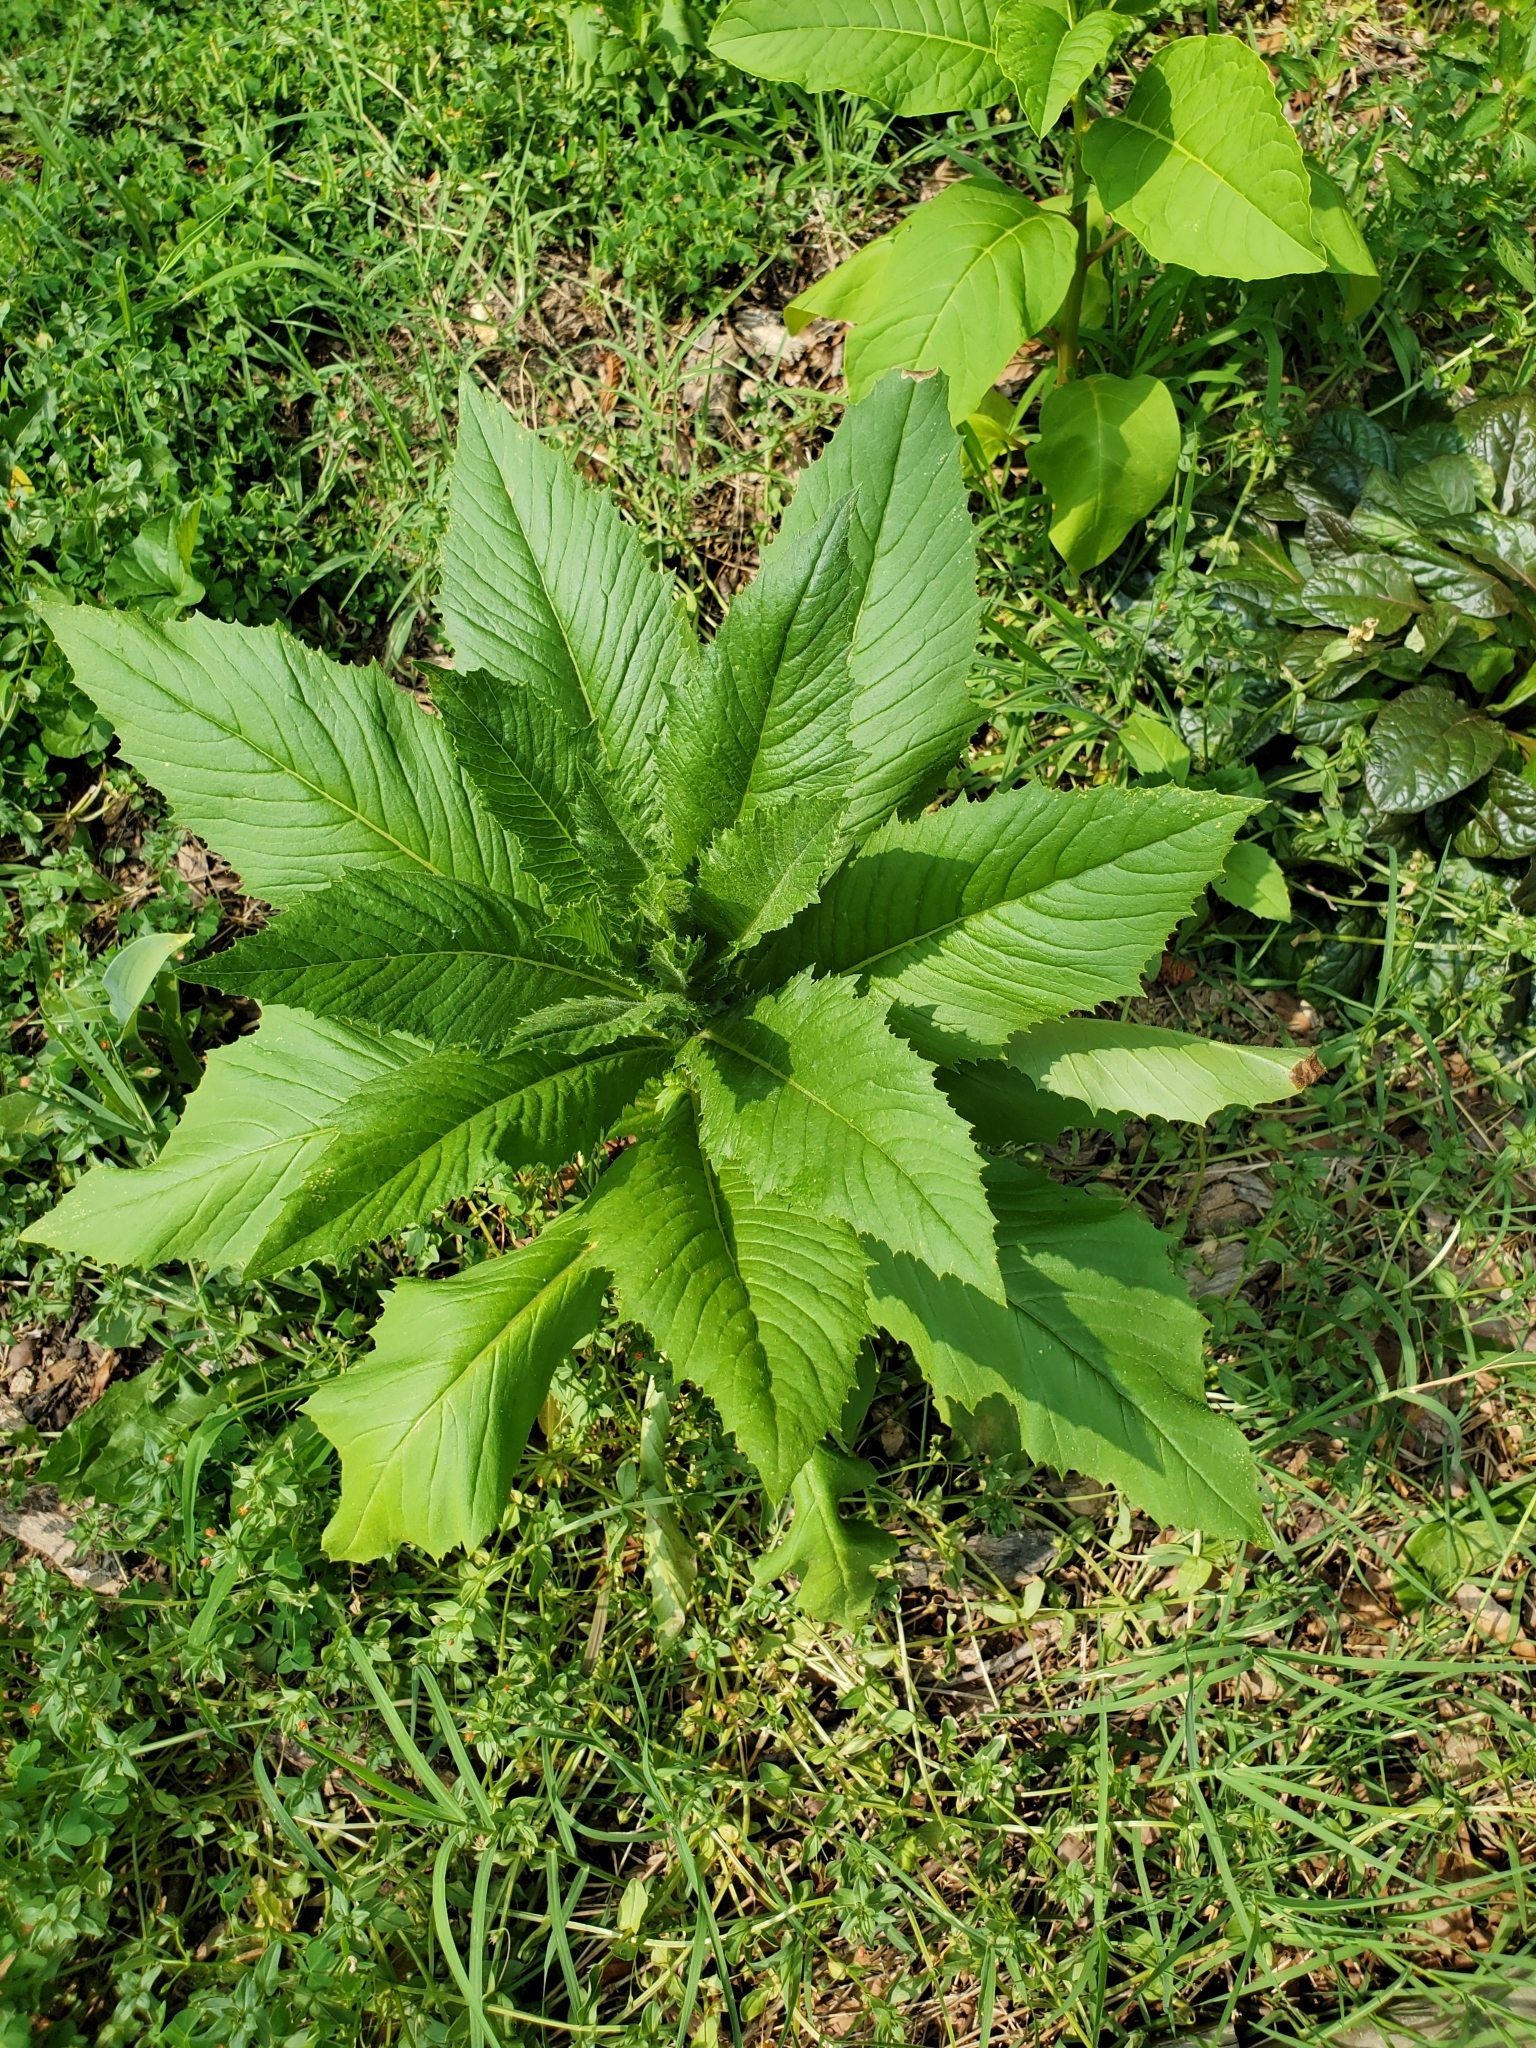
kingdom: Plantae
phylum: Tracheophyta
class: Magnoliopsida
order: Asterales
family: Asteraceae
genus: Erechtites
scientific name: Erechtites hieraciifolius
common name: American burnweed
